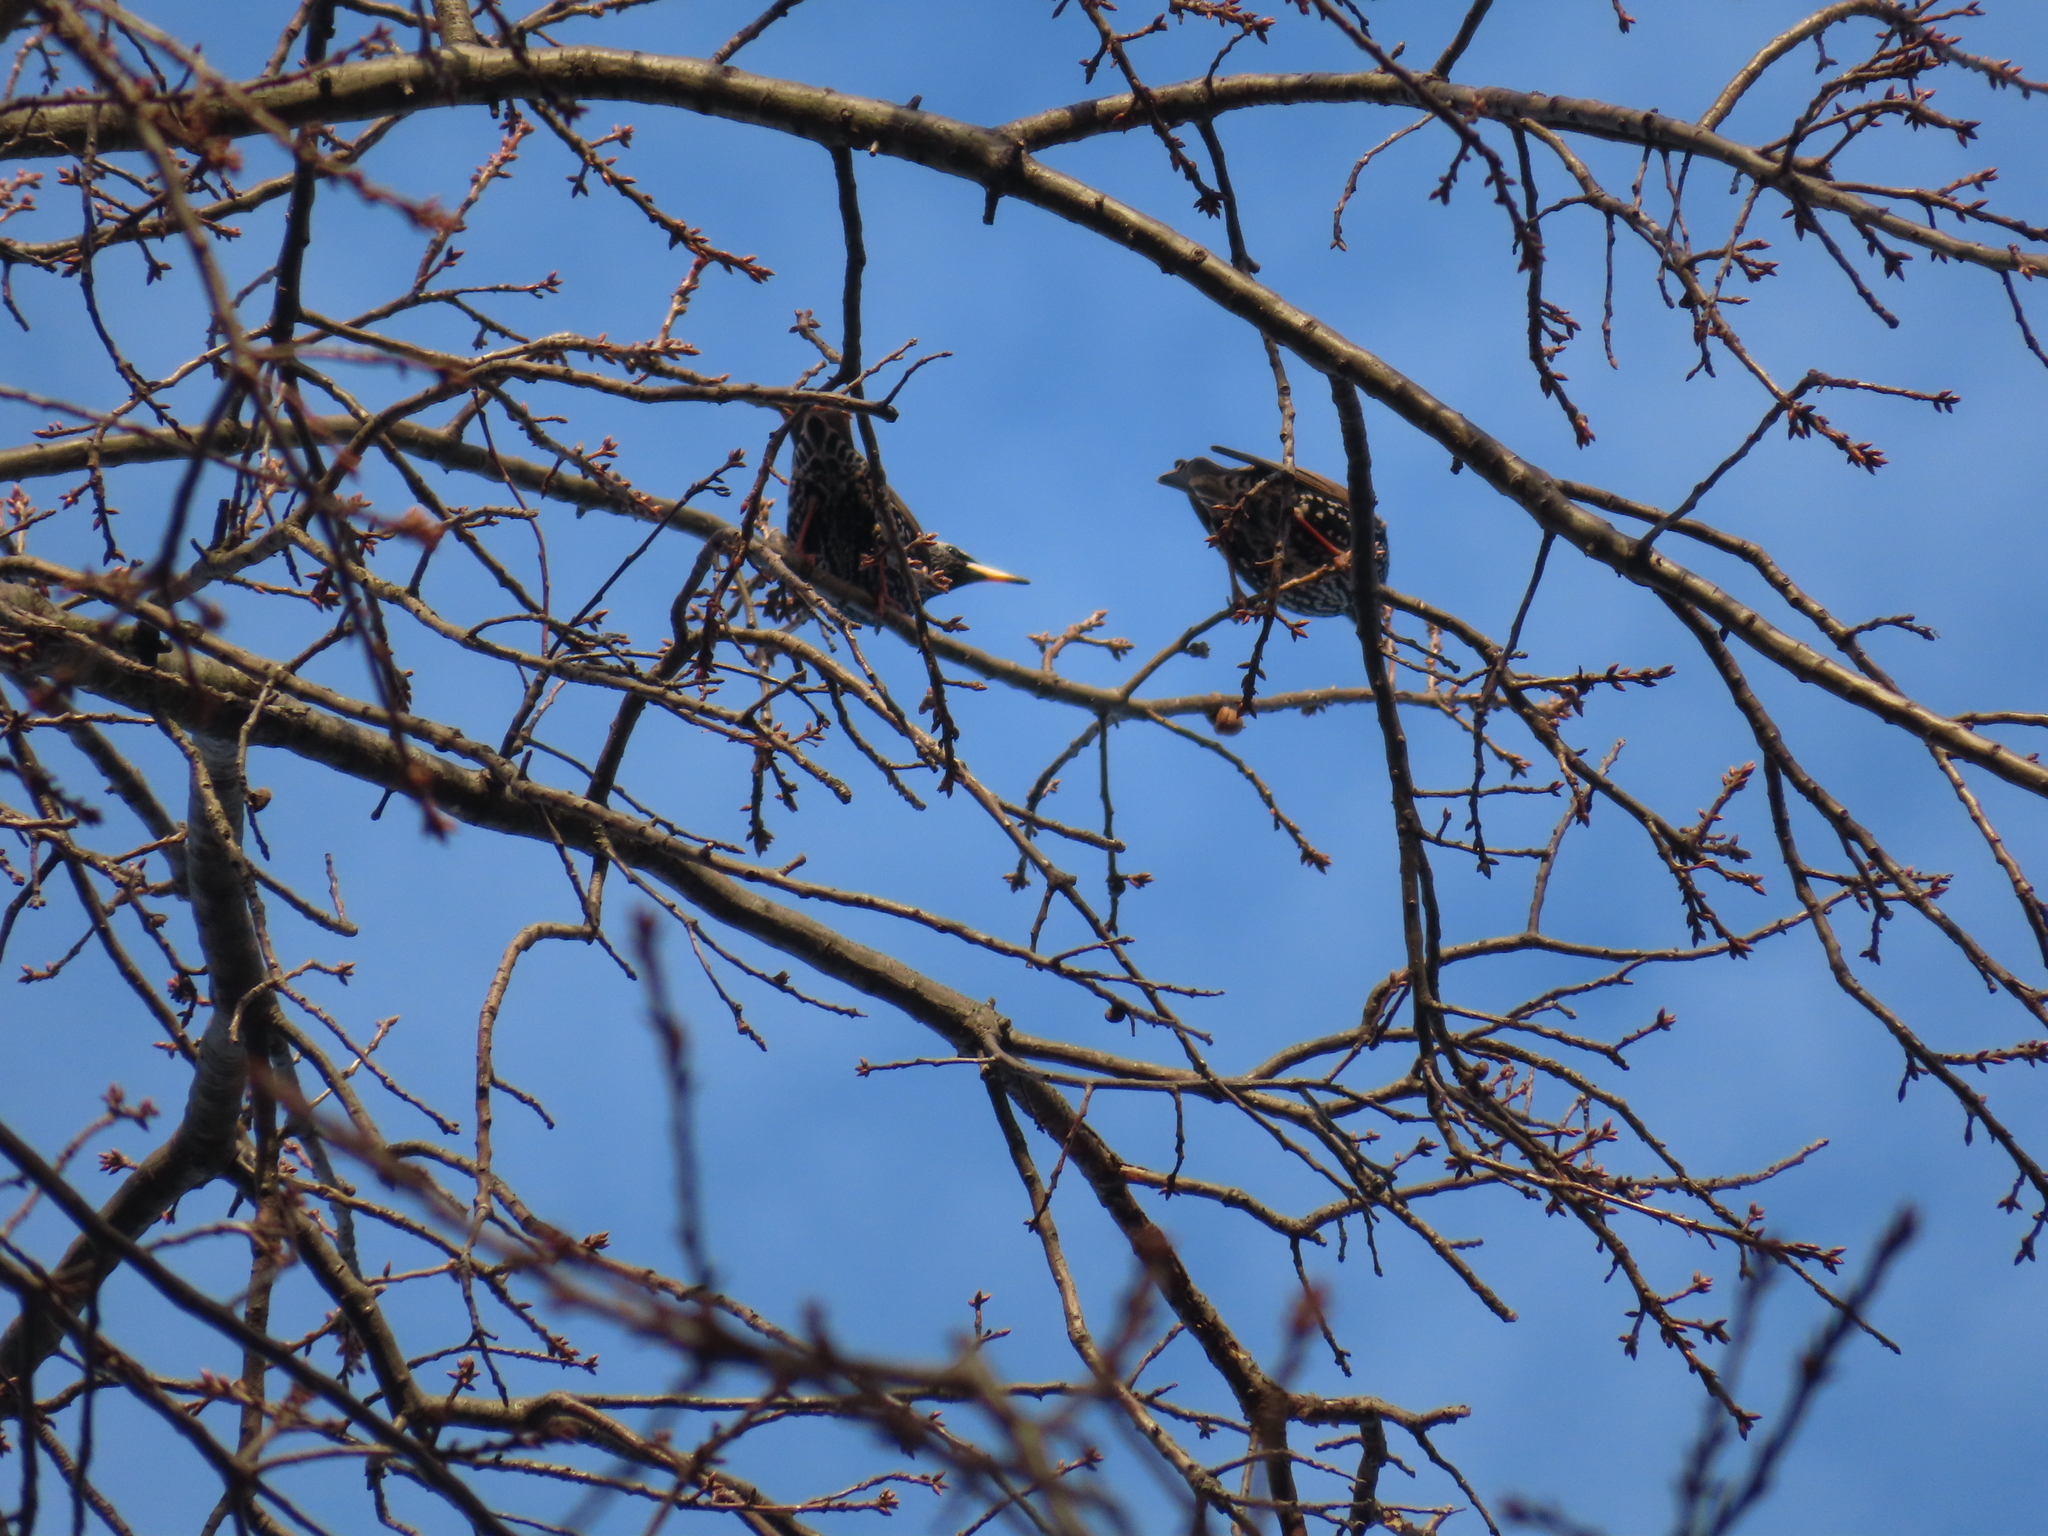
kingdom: Animalia
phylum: Chordata
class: Aves
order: Passeriformes
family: Sturnidae
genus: Sturnus
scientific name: Sturnus vulgaris
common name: Common starling
